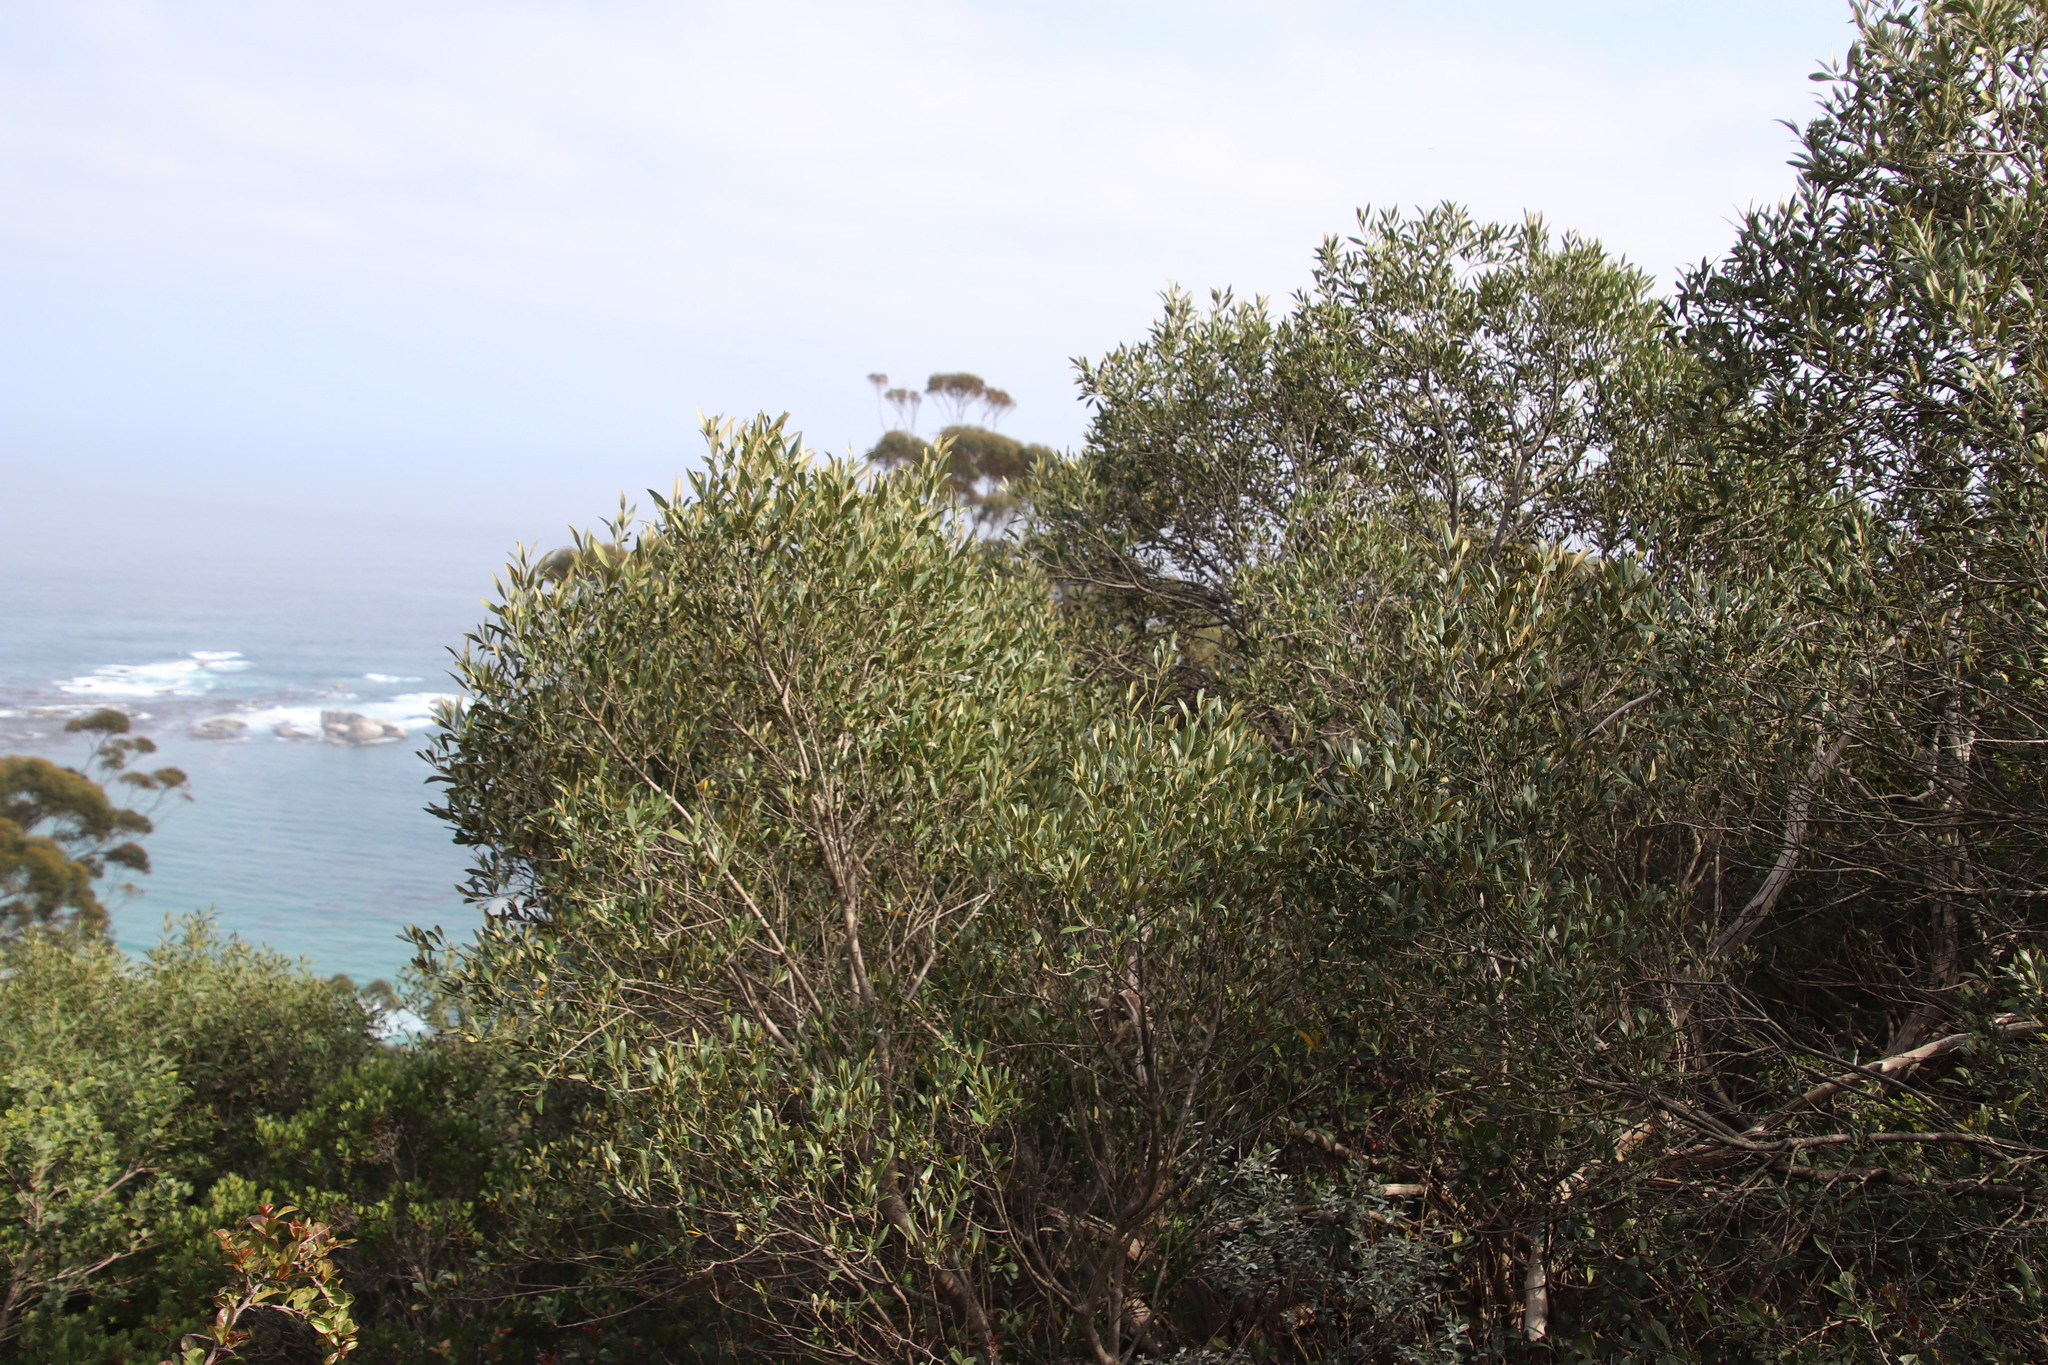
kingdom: Plantae
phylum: Tracheophyta
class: Magnoliopsida
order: Lamiales
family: Oleaceae
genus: Olea
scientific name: Olea europaea
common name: Olive
